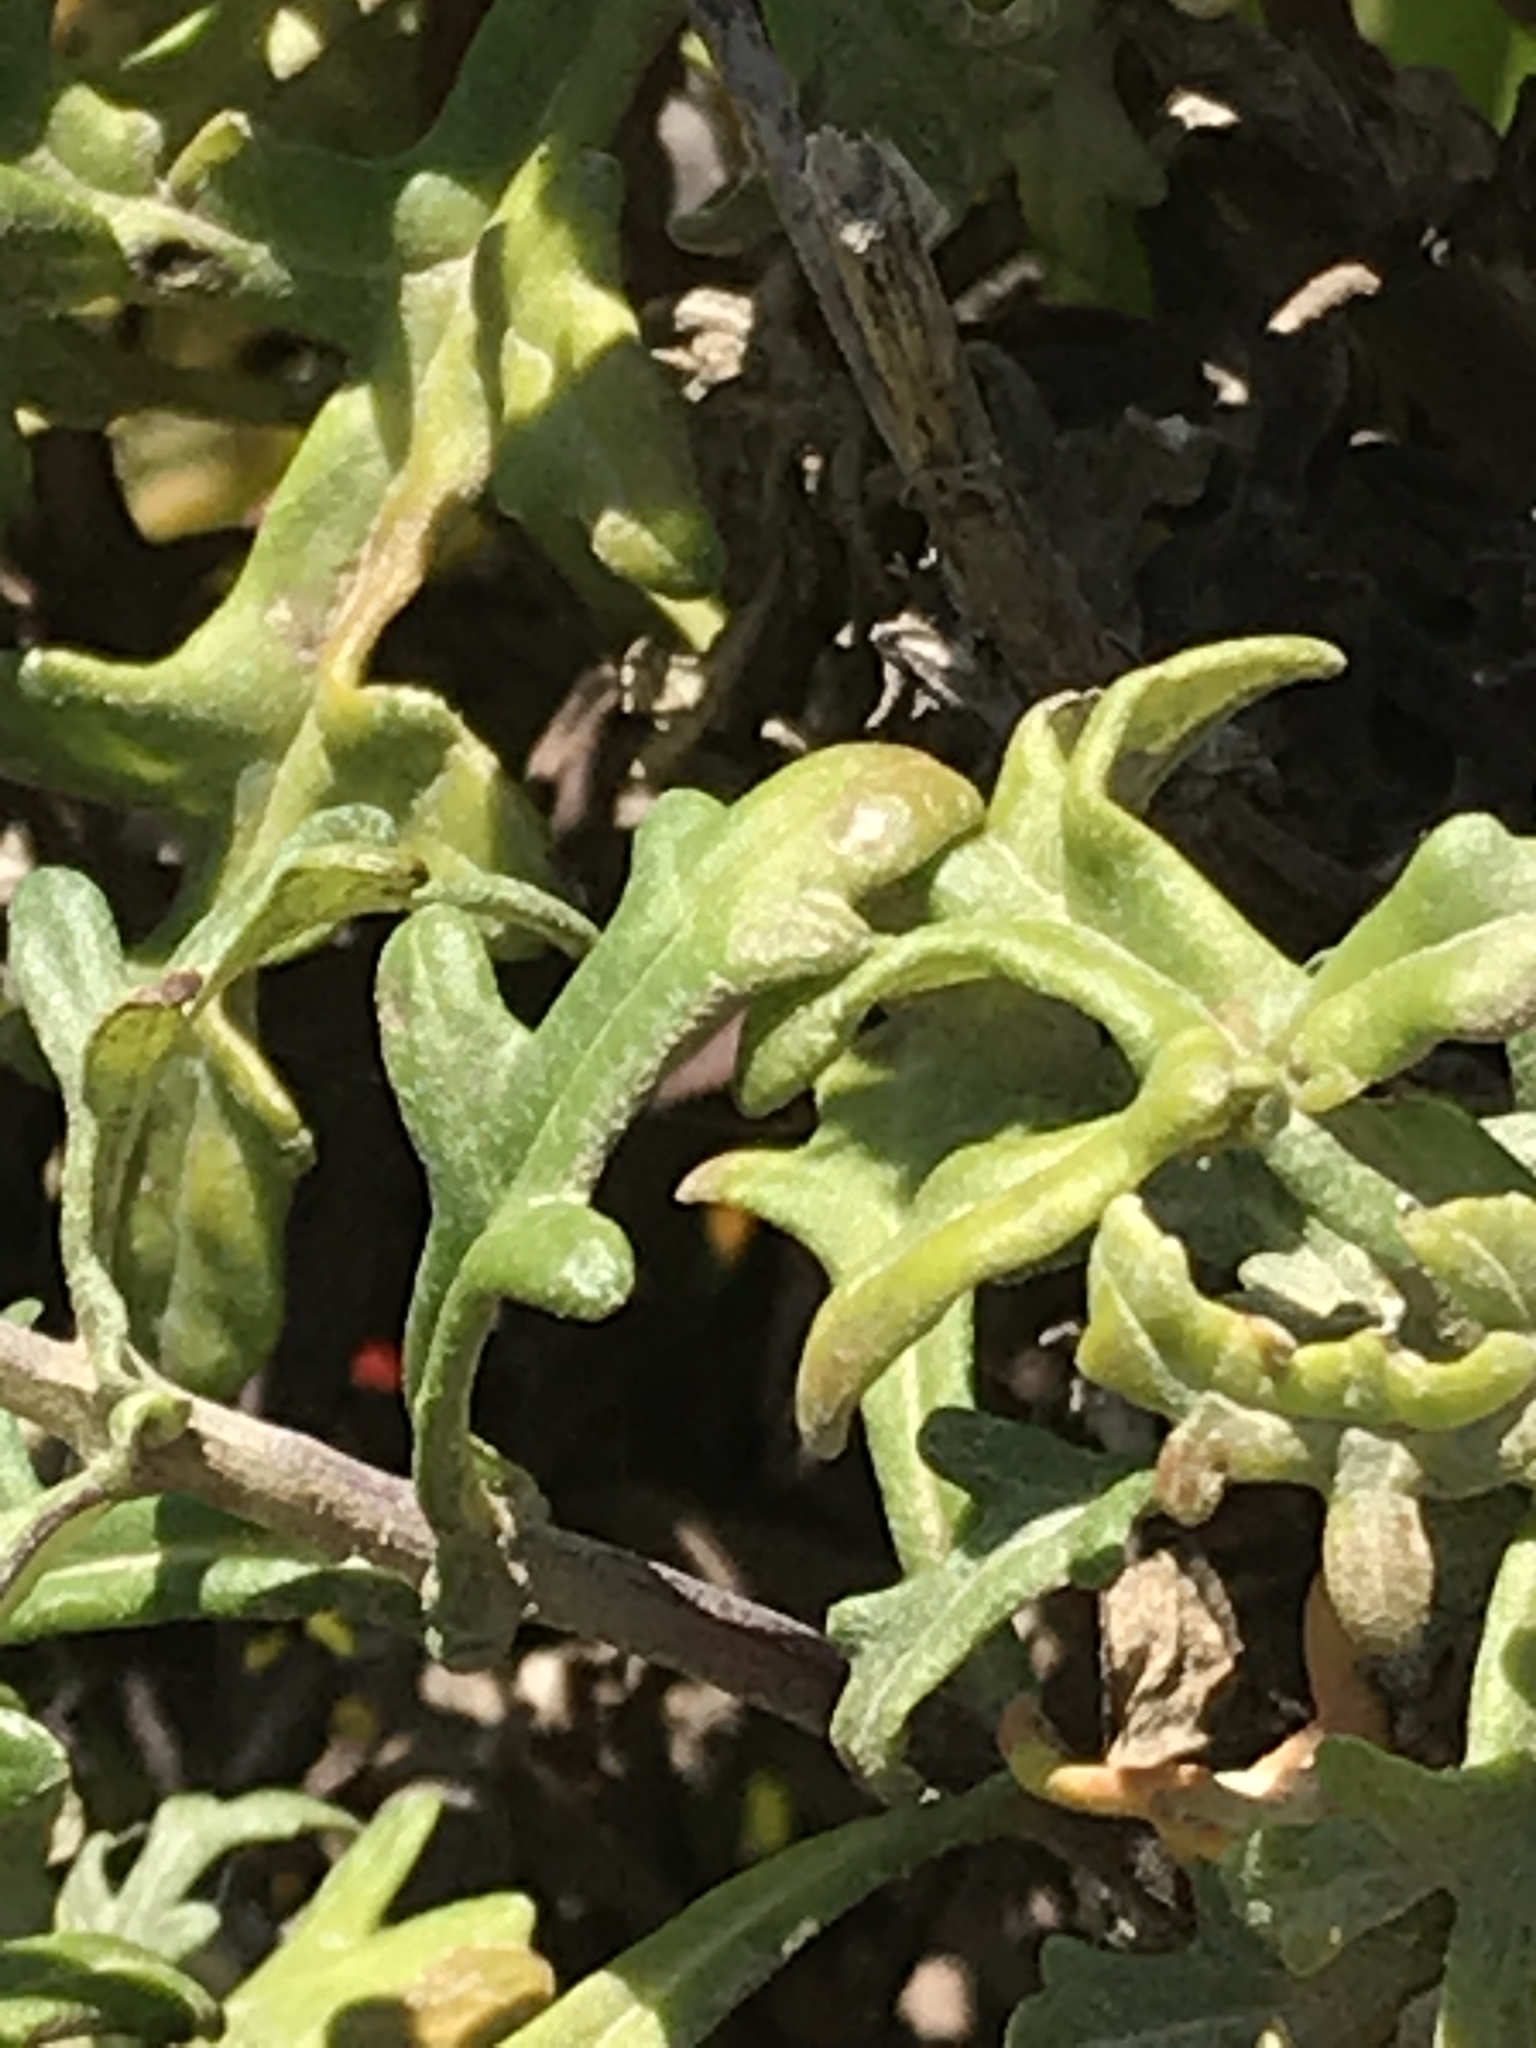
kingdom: Plantae
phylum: Tracheophyta
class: Magnoliopsida
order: Asterales
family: Asteraceae
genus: Eriophyllum
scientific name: Eriophyllum staechadifolium
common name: Lizardtail
